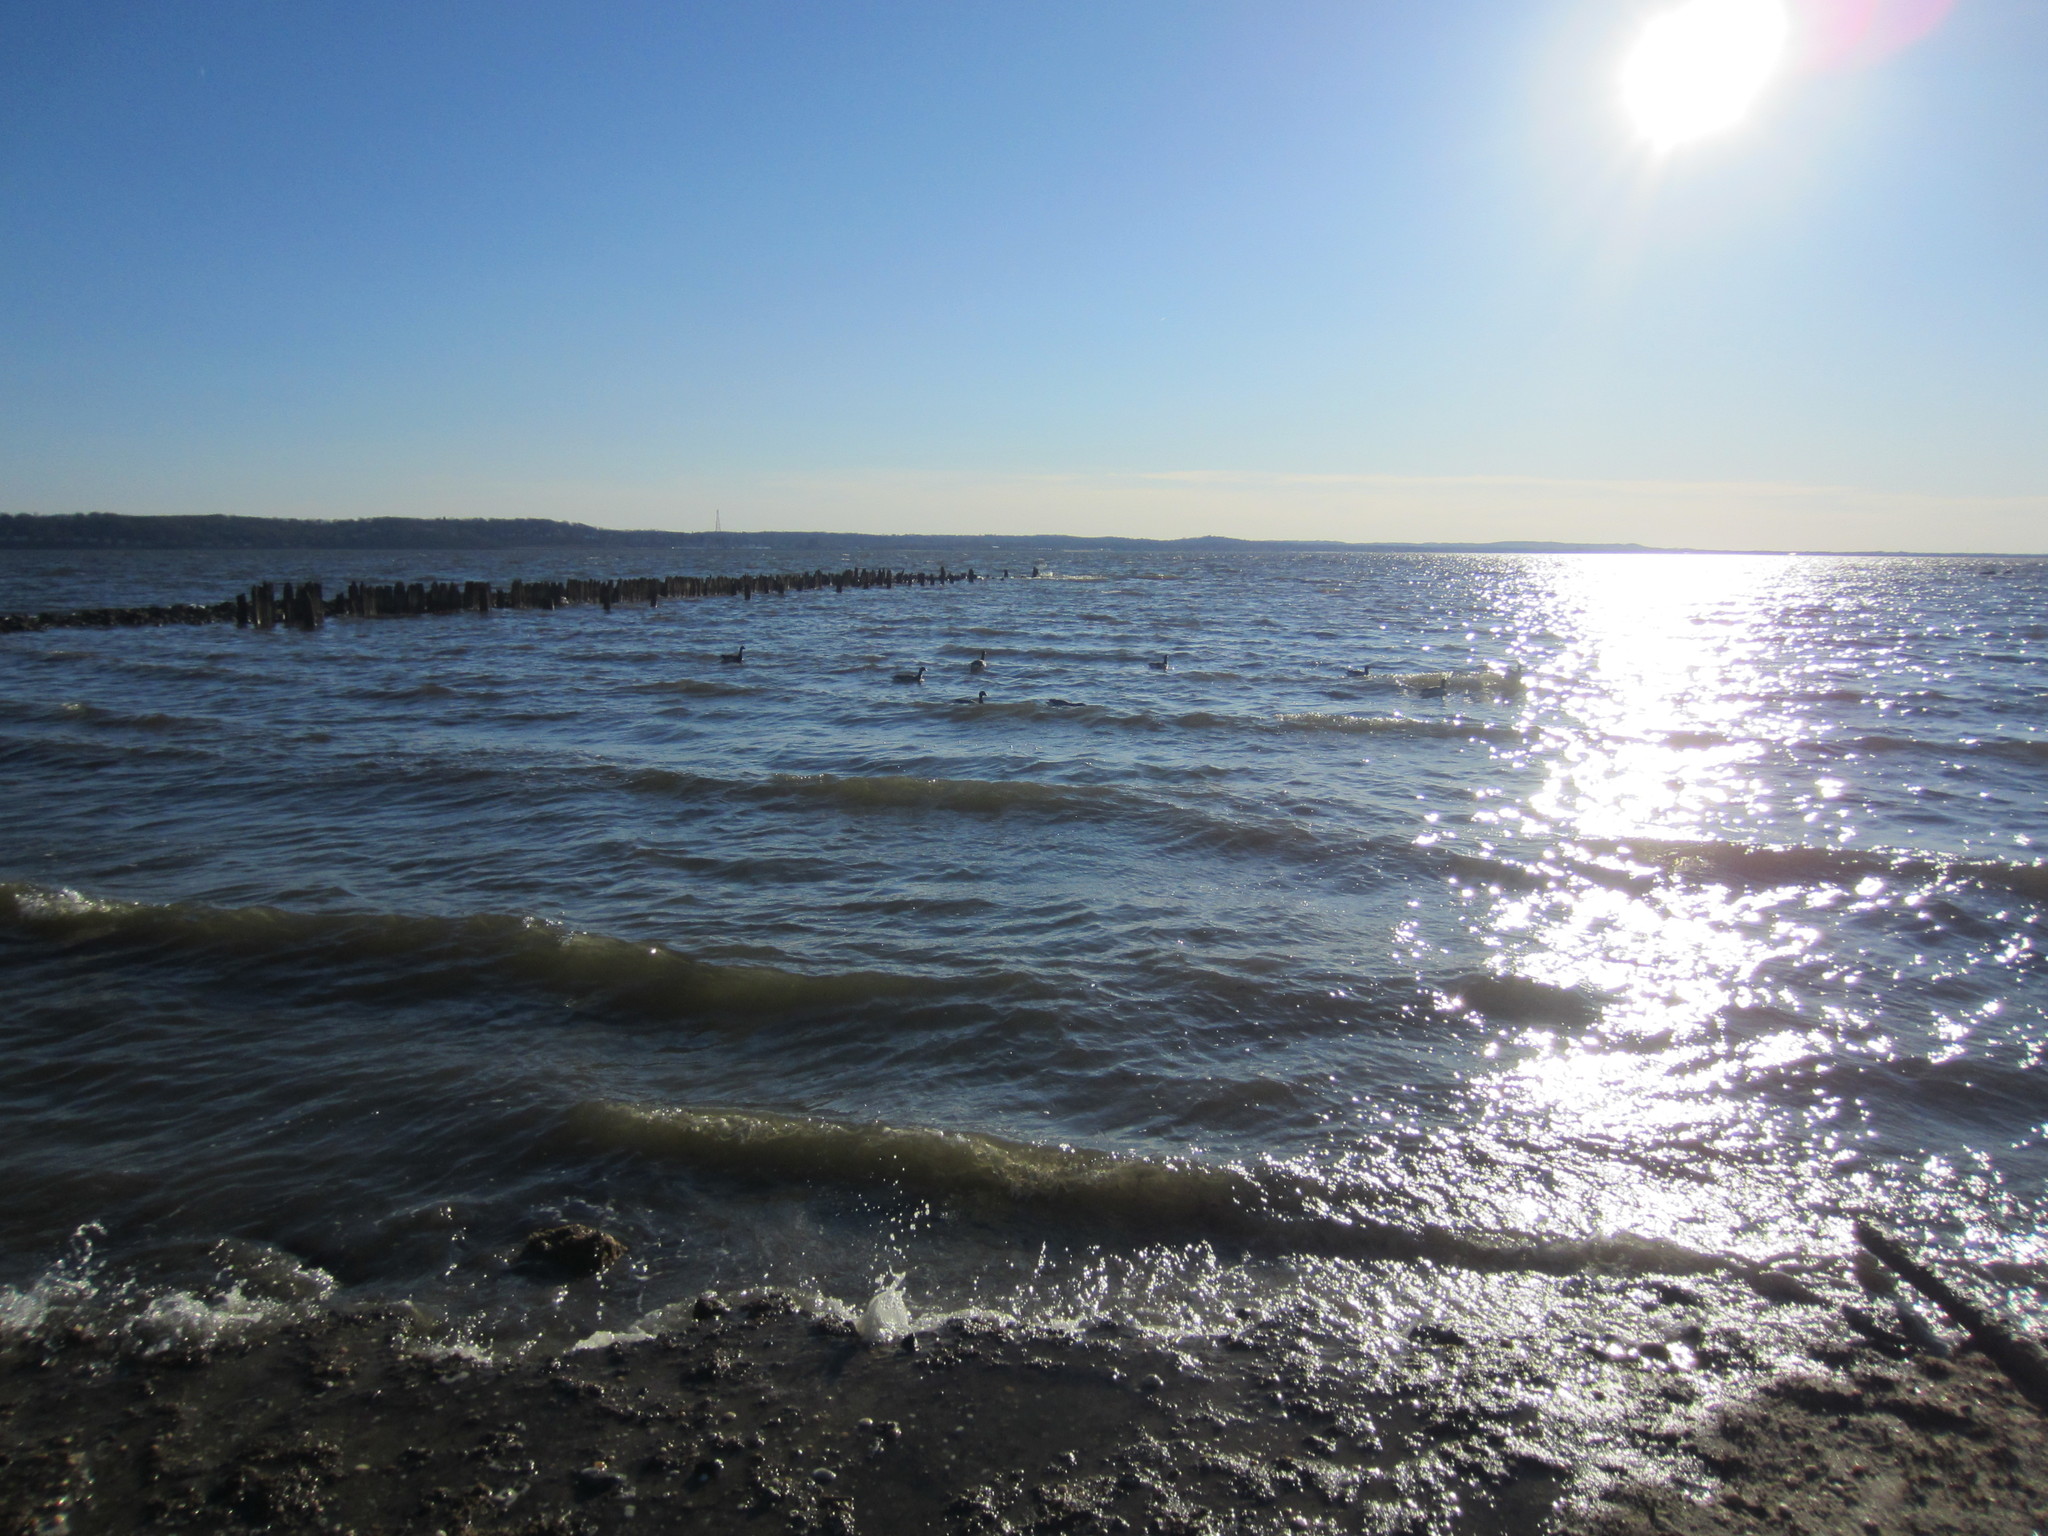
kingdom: Animalia
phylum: Chordata
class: Aves
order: Anseriformes
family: Anatidae
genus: Branta
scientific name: Branta bernicla
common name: Brant goose
